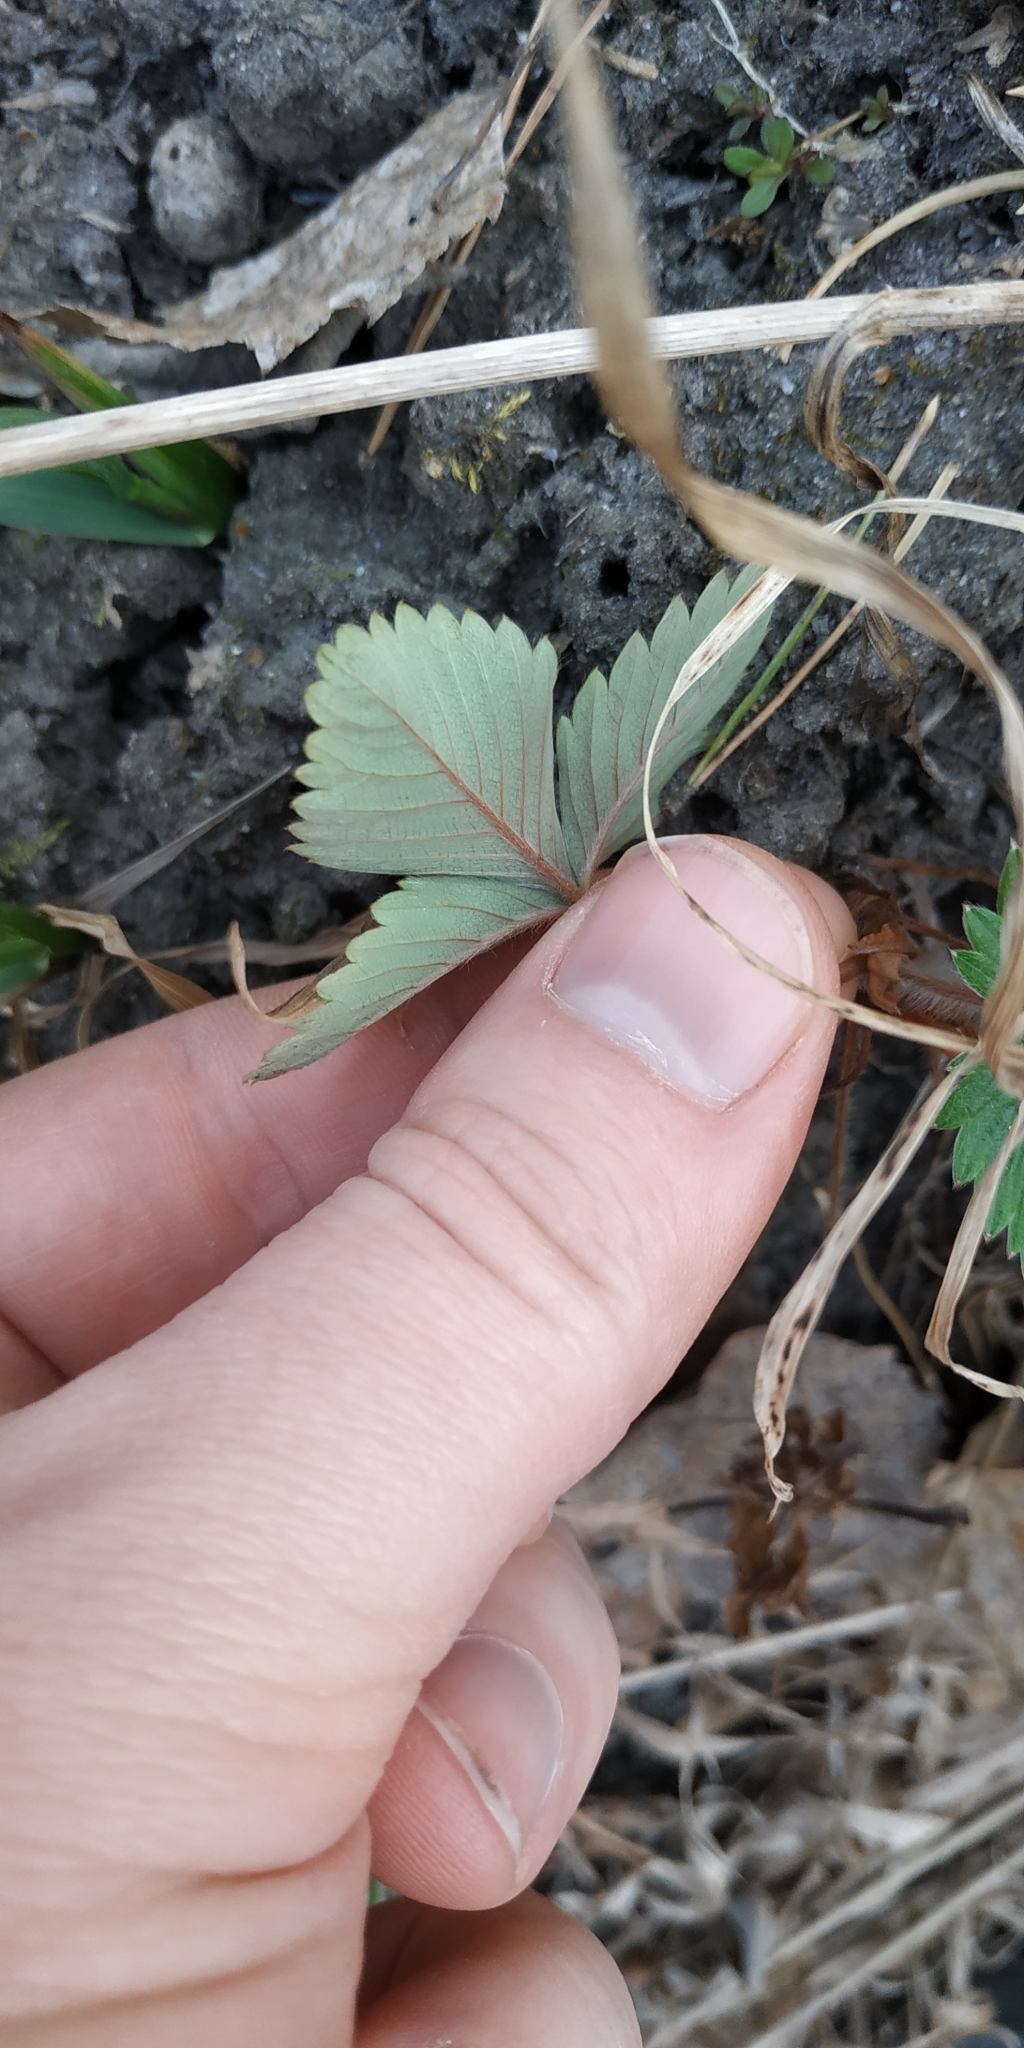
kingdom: Plantae
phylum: Tracheophyta
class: Magnoliopsida
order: Rosales
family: Rosaceae
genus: Fragaria
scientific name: Fragaria vesca
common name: Wild strawberry
